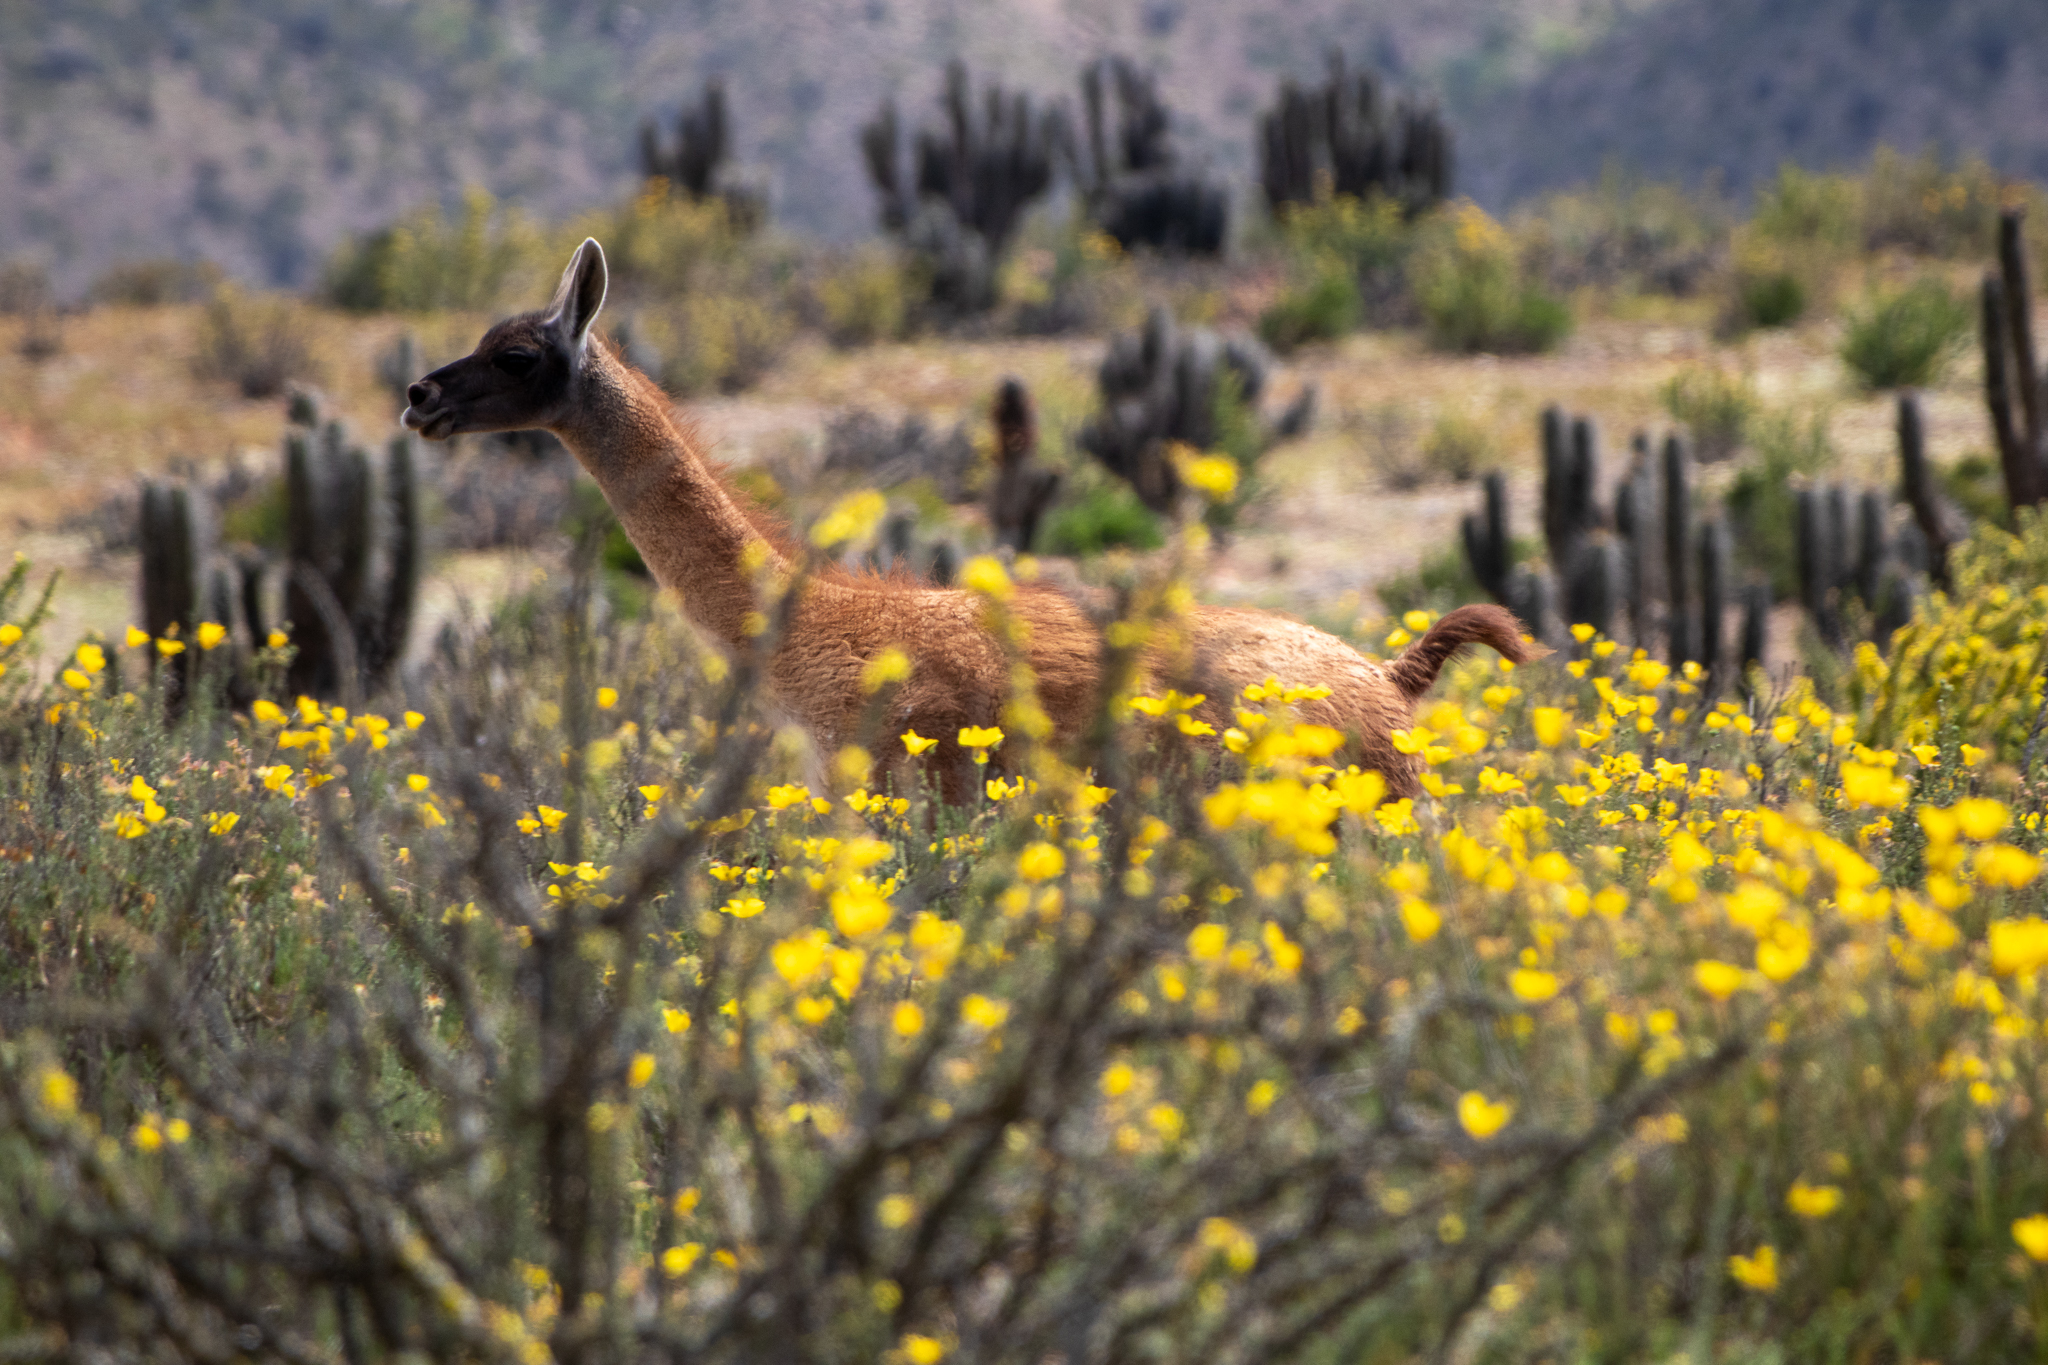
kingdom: Animalia
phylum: Chordata
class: Mammalia
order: Artiodactyla
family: Camelidae
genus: Lama
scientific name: Lama glama
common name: Llama
